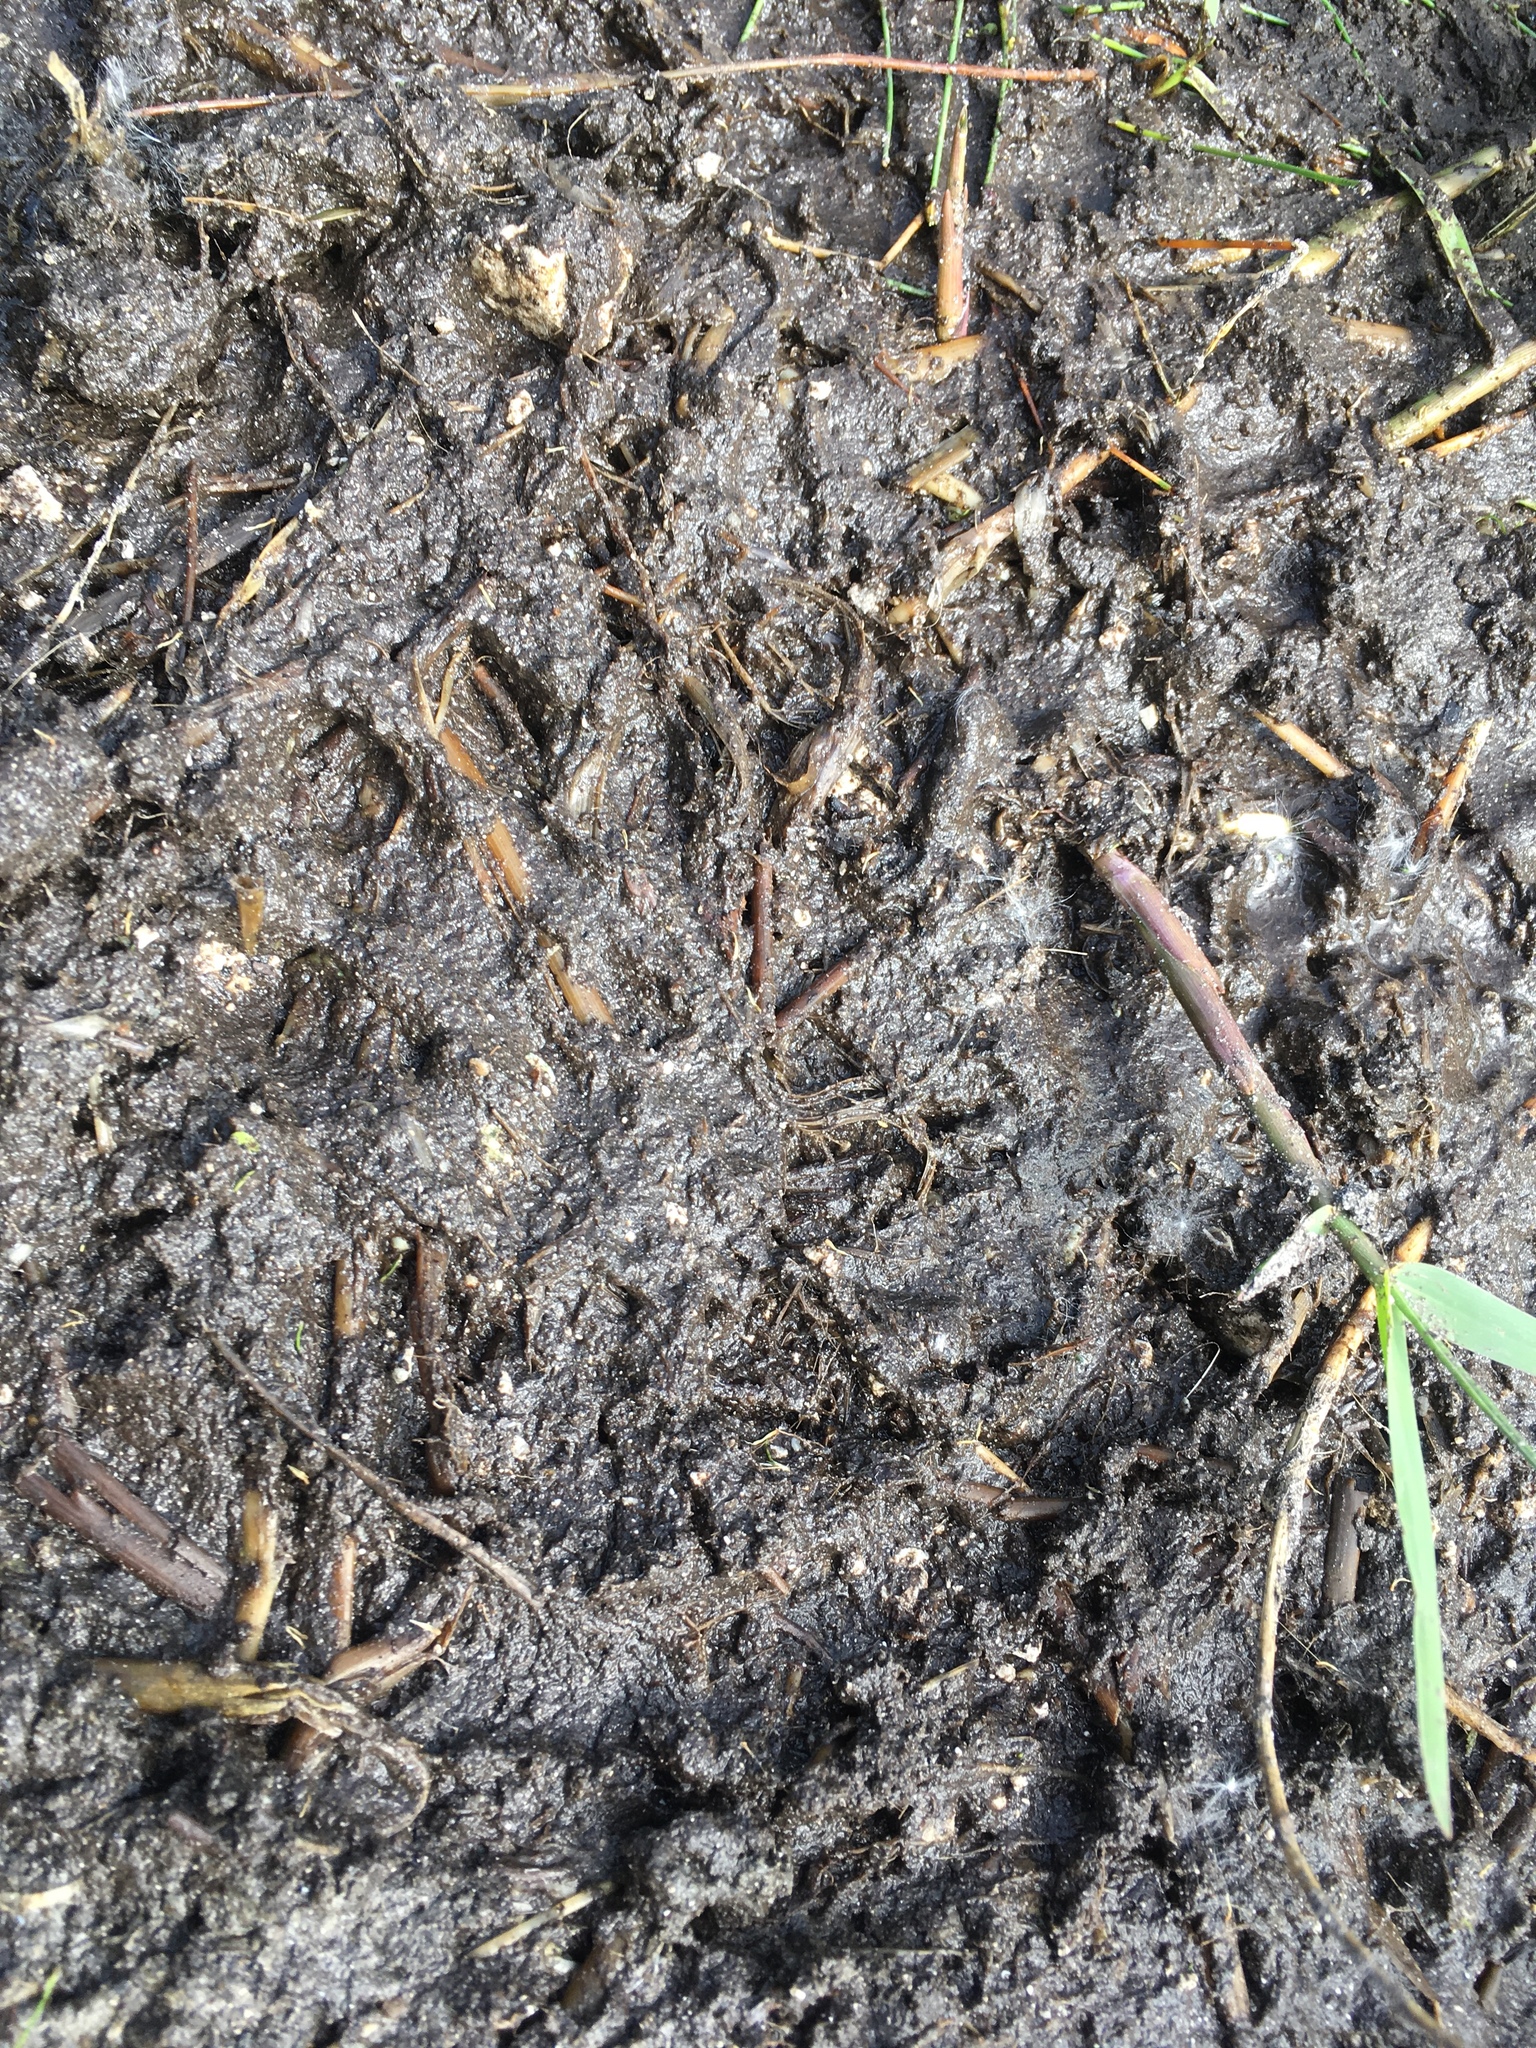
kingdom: Animalia
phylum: Chordata
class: Mammalia
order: Carnivora
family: Mustelidae
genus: Lontra
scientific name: Lontra canadensis
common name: North american river otter
